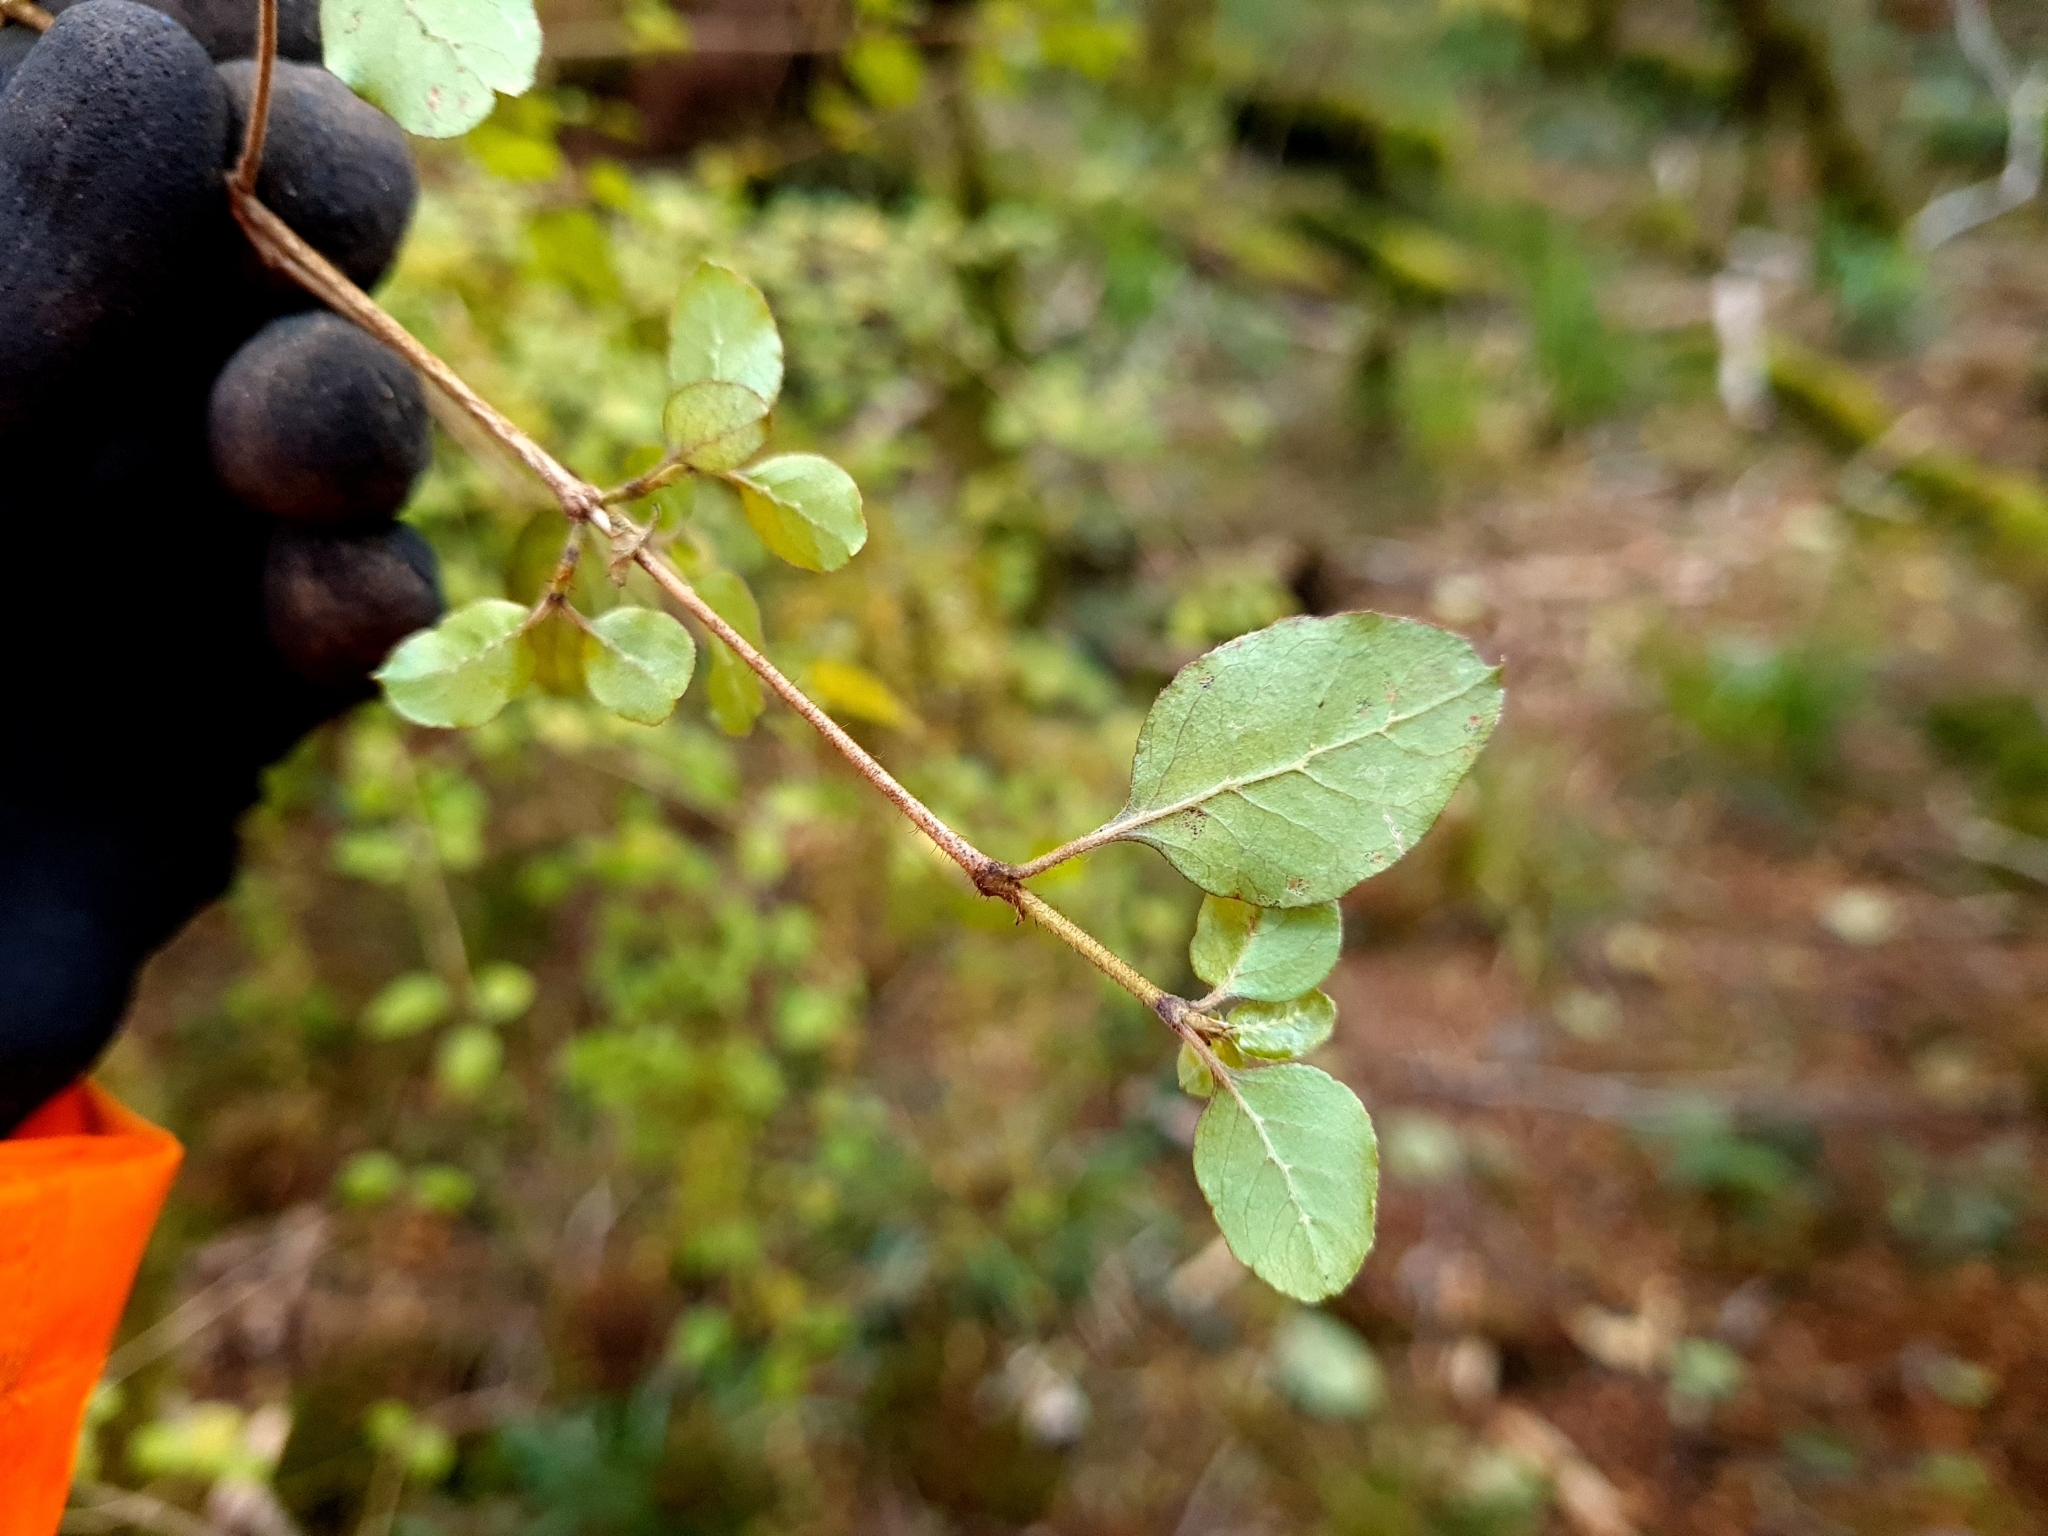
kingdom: Plantae
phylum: Tracheophyta
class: Magnoliopsida
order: Gentianales
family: Rubiaceae
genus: Coprosma
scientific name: Coprosma rotundifolia
